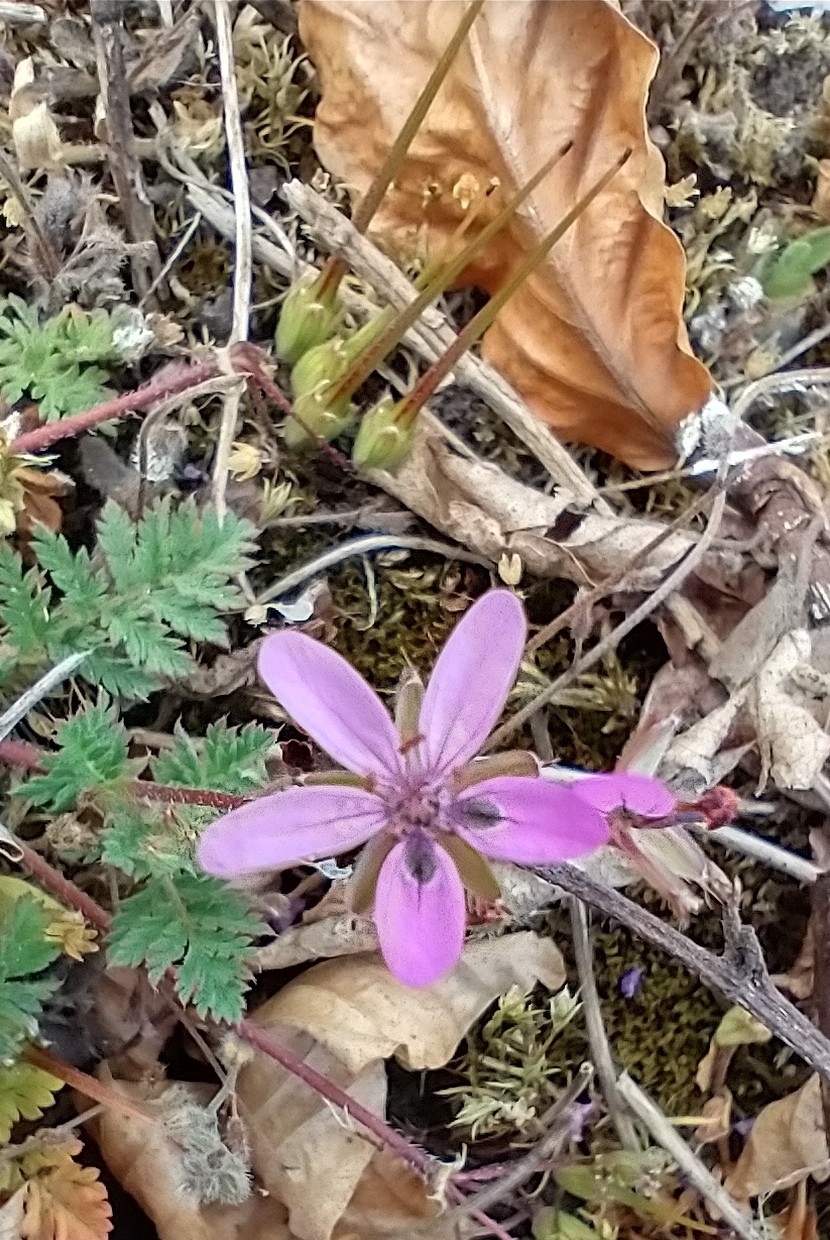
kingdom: Plantae
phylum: Tracheophyta
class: Magnoliopsida
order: Geraniales
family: Geraniaceae
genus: Erodium
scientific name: Erodium cicutarium
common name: Common stork's-bill
